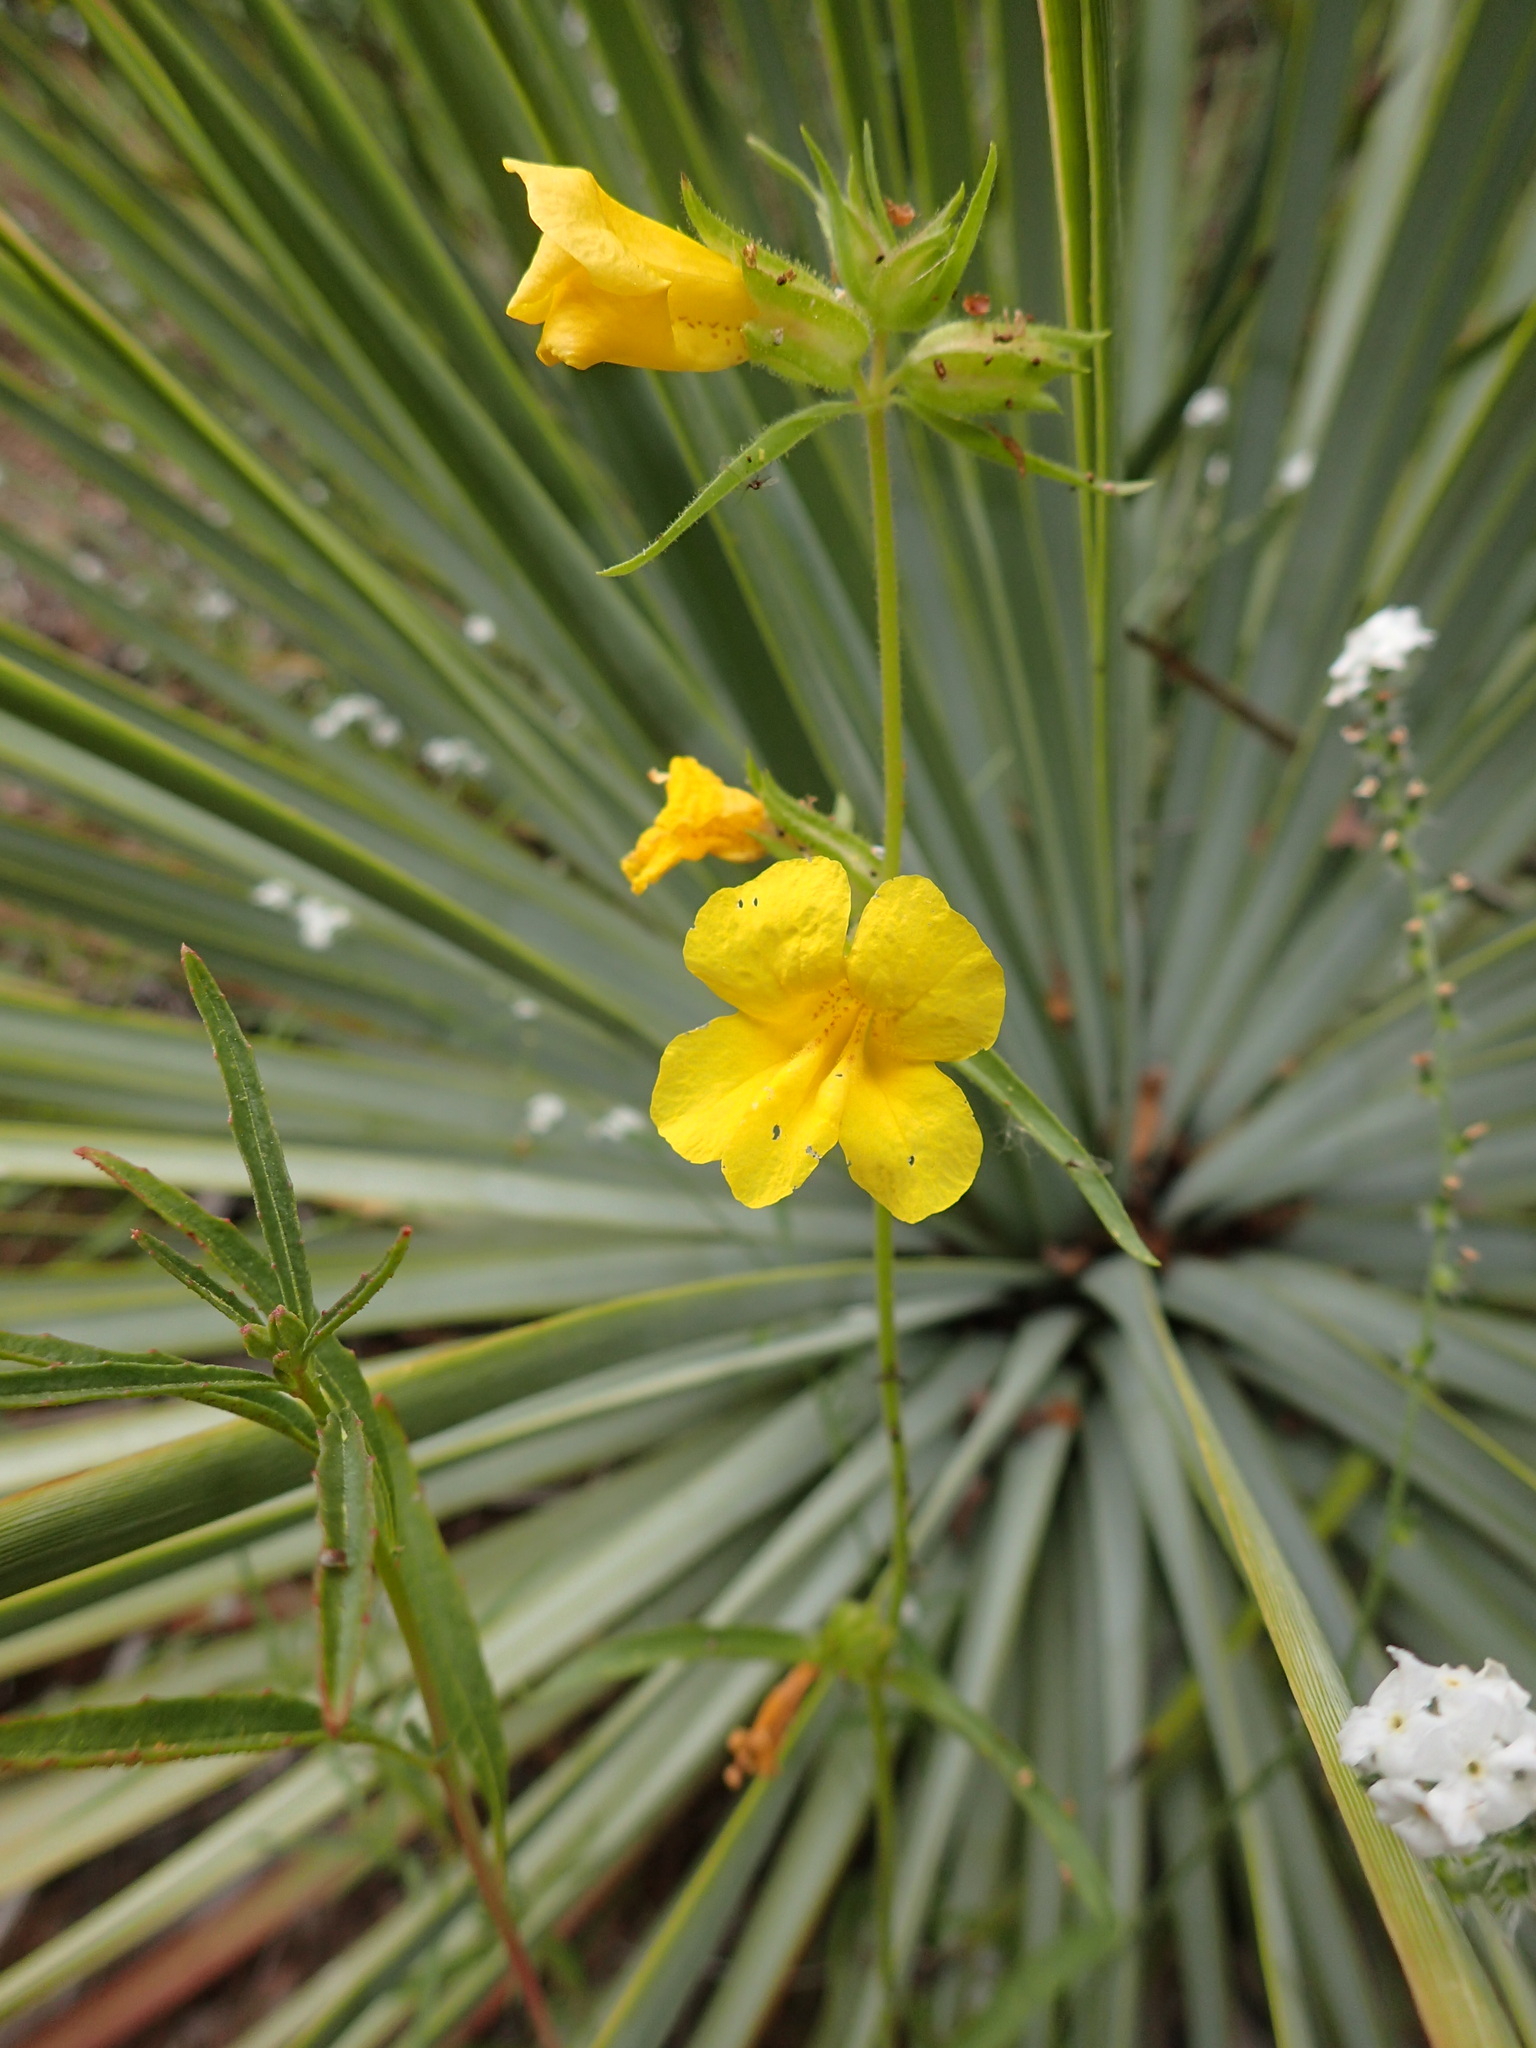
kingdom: Plantae
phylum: Tracheophyta
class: Magnoliopsida
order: Lamiales
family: Phrymaceae
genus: Diplacus
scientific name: Diplacus brevipes
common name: Wide-throat yellow monkey-flower
